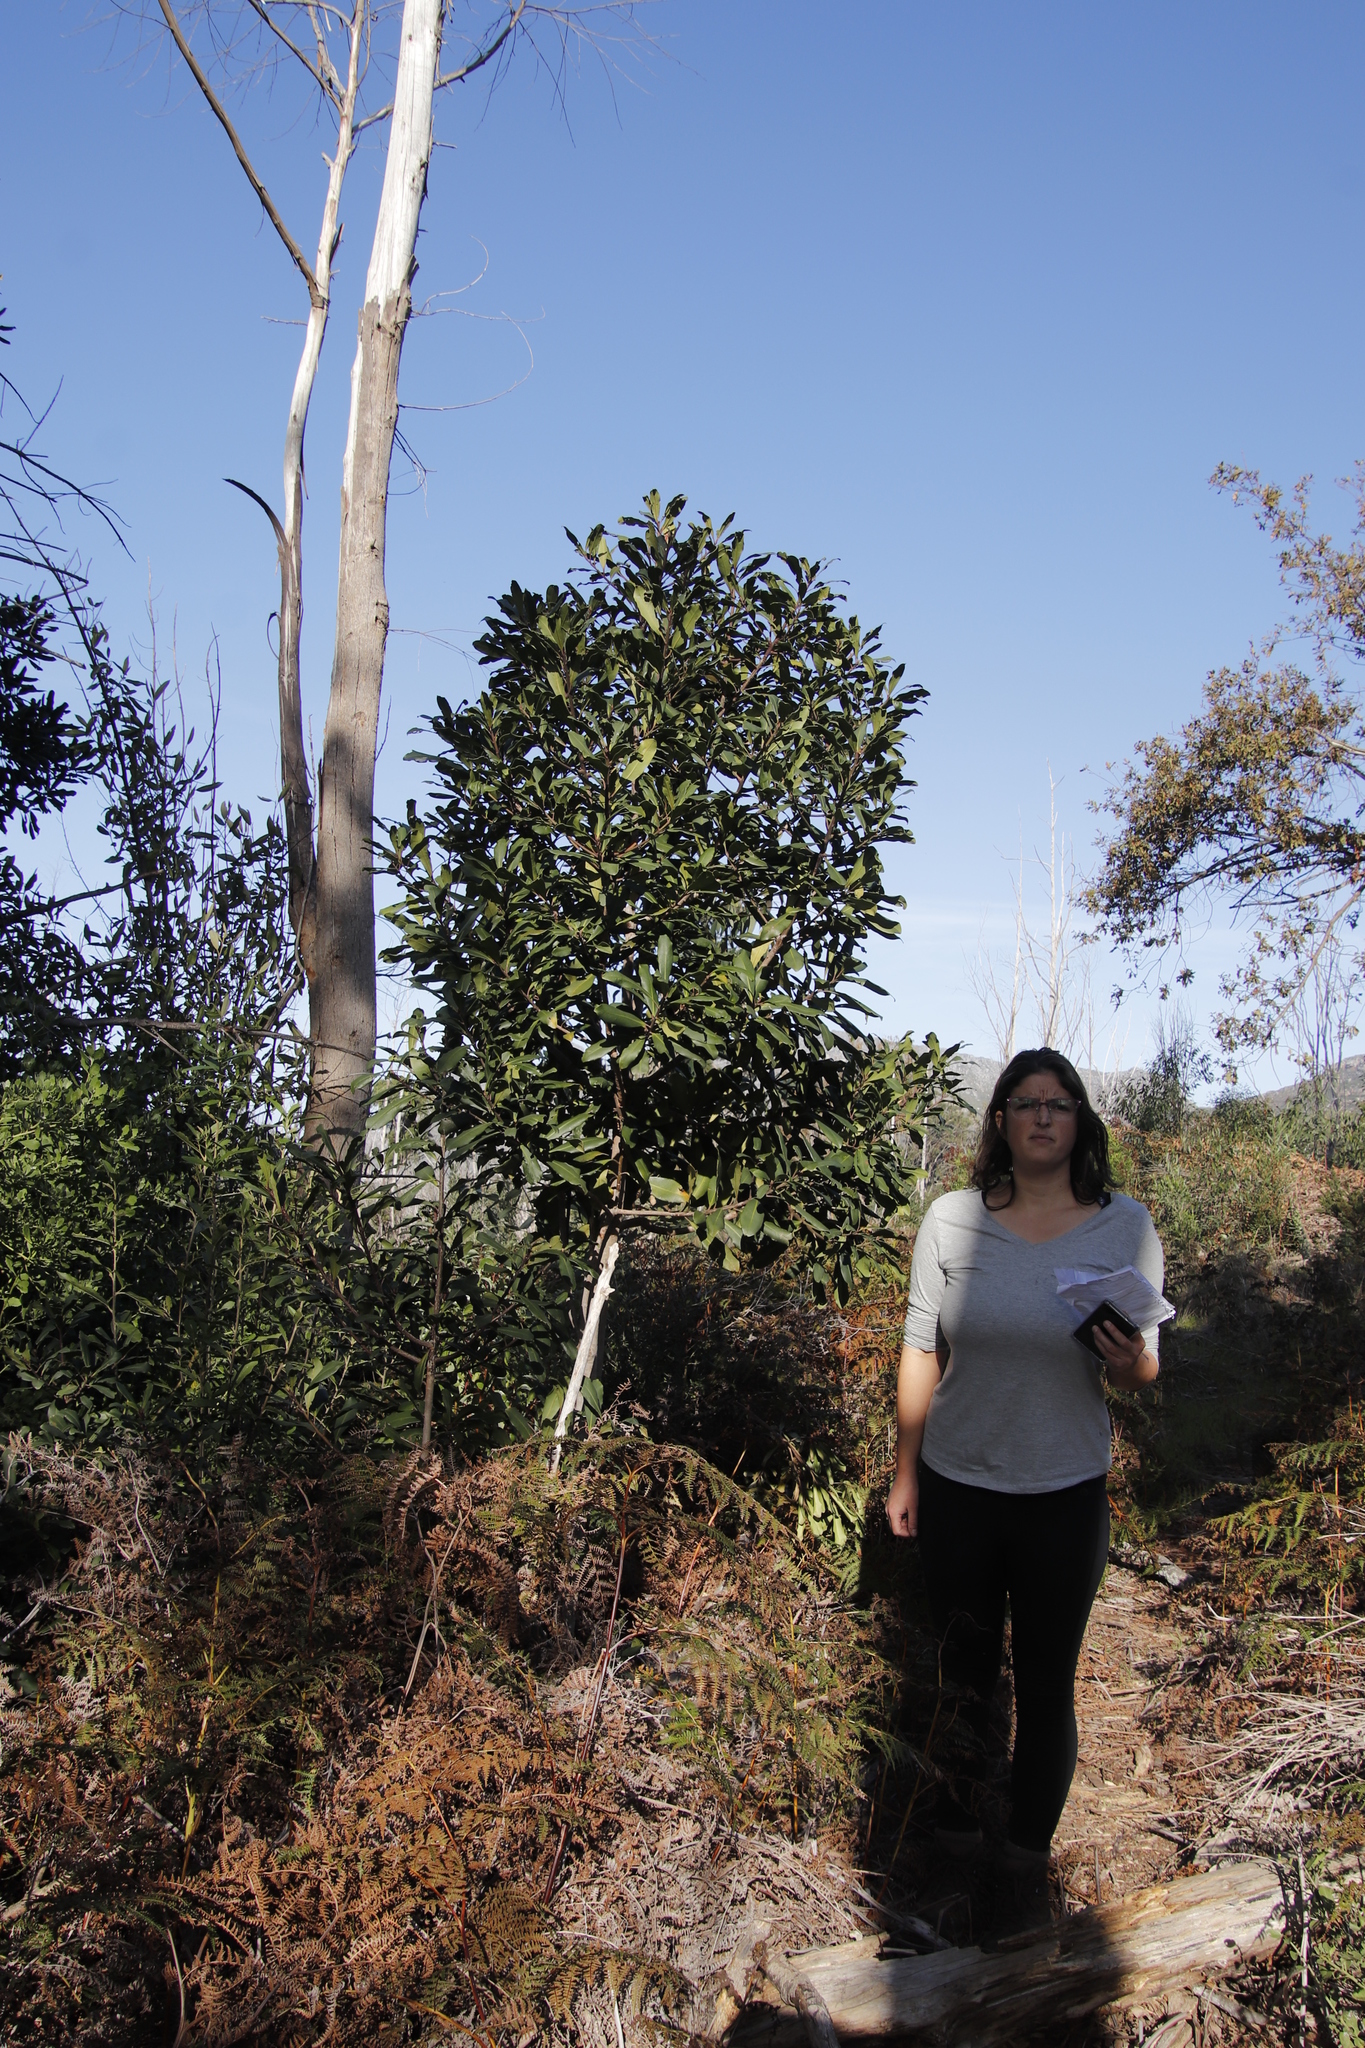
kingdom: Plantae
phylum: Tracheophyta
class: Magnoliopsida
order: Ericales
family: Primulaceae
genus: Myrsine
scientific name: Myrsine melanophloeos
